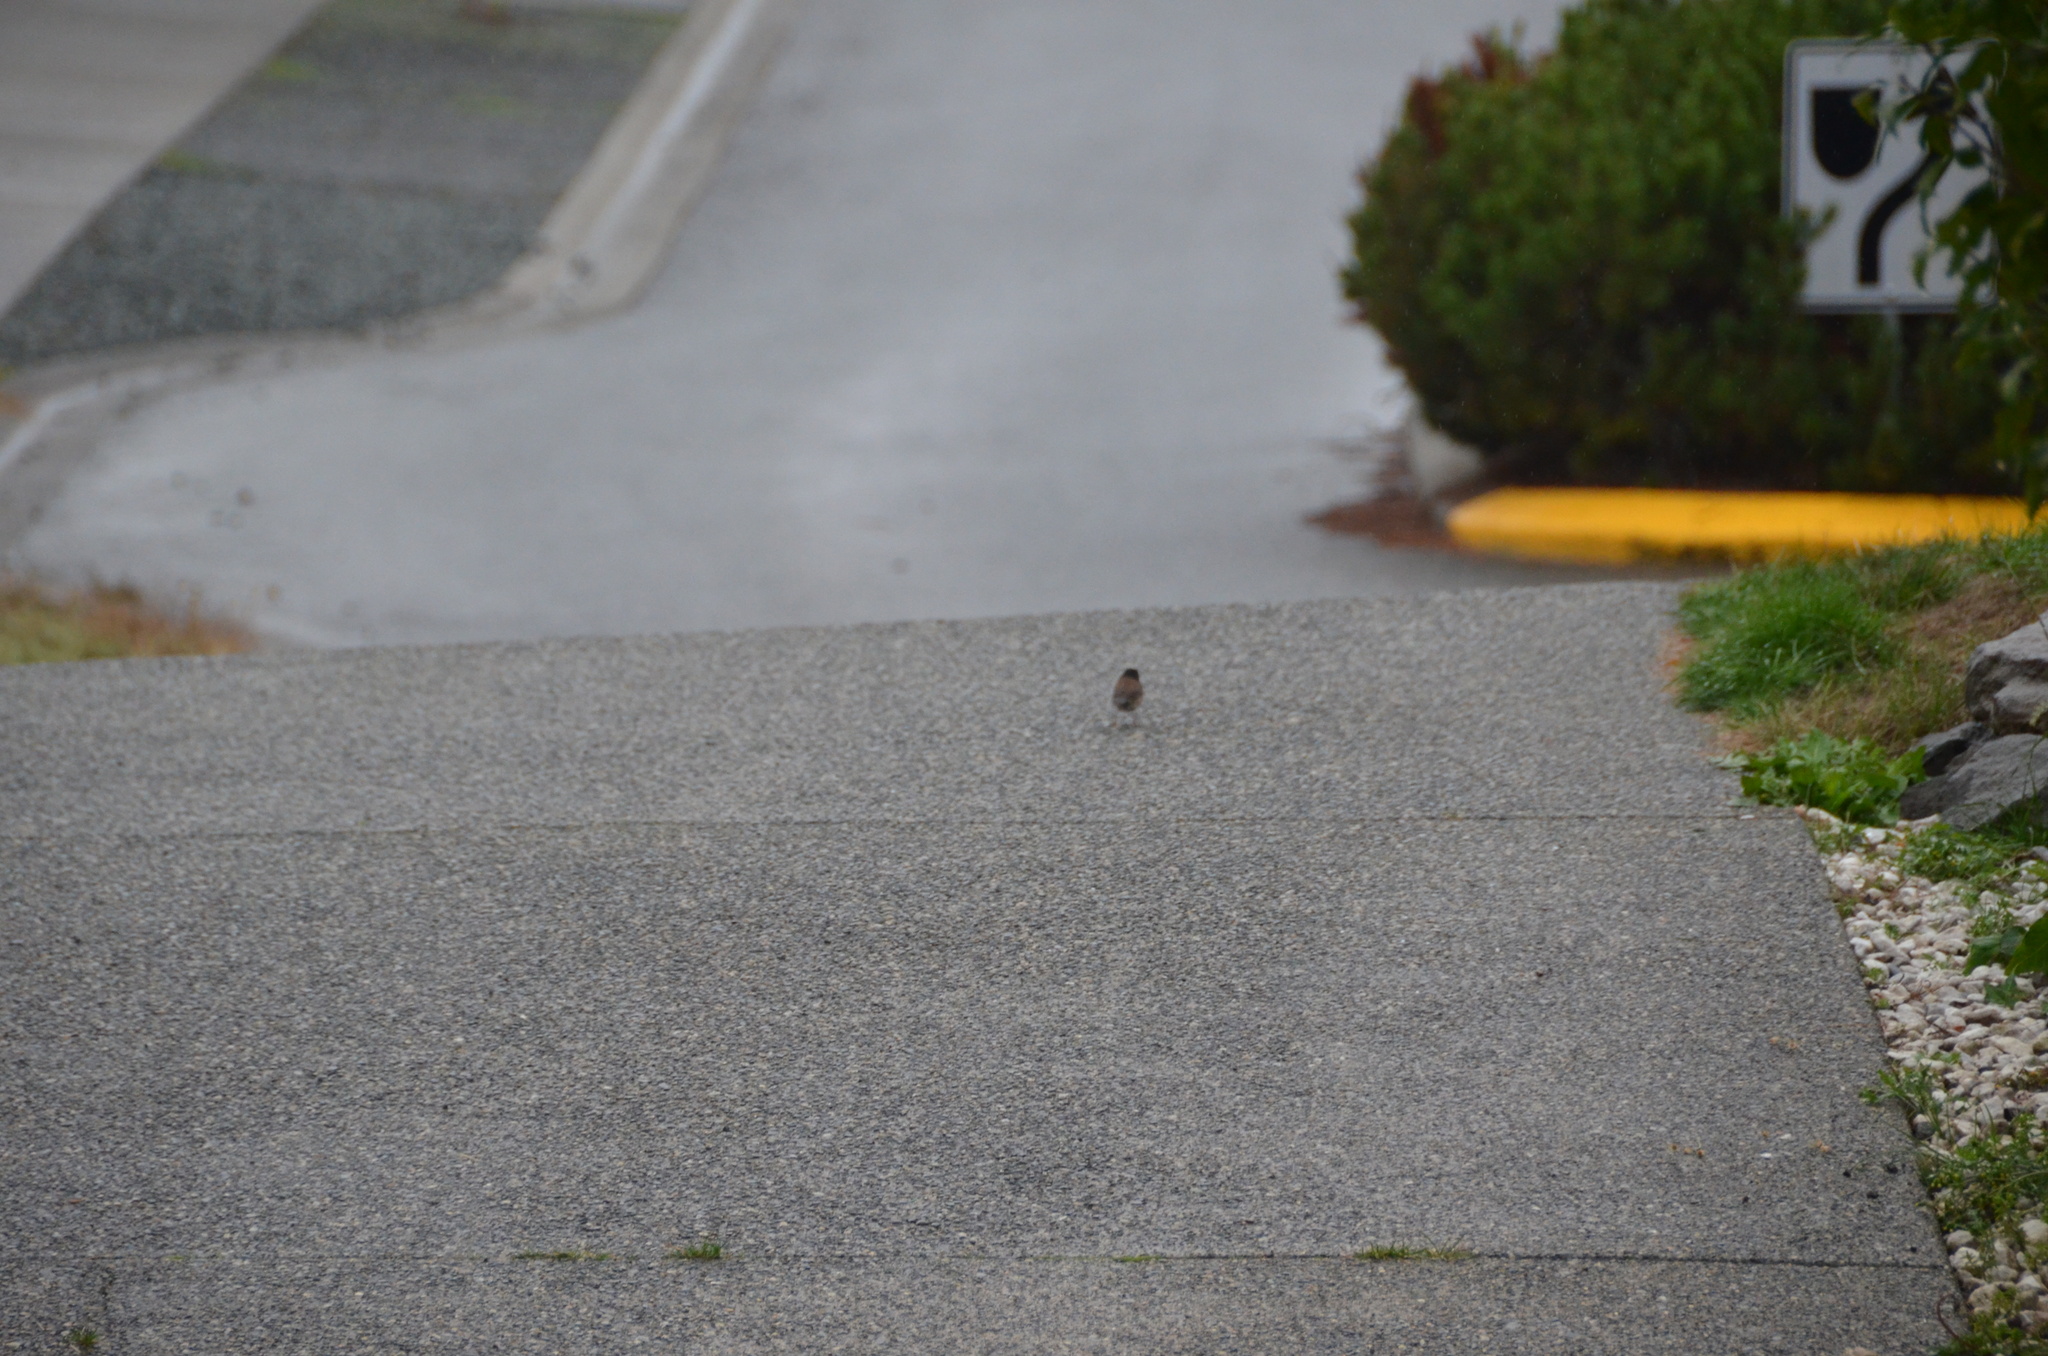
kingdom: Animalia
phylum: Chordata
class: Aves
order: Passeriformes
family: Passerellidae
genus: Junco
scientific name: Junco hyemalis
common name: Dark-eyed junco
